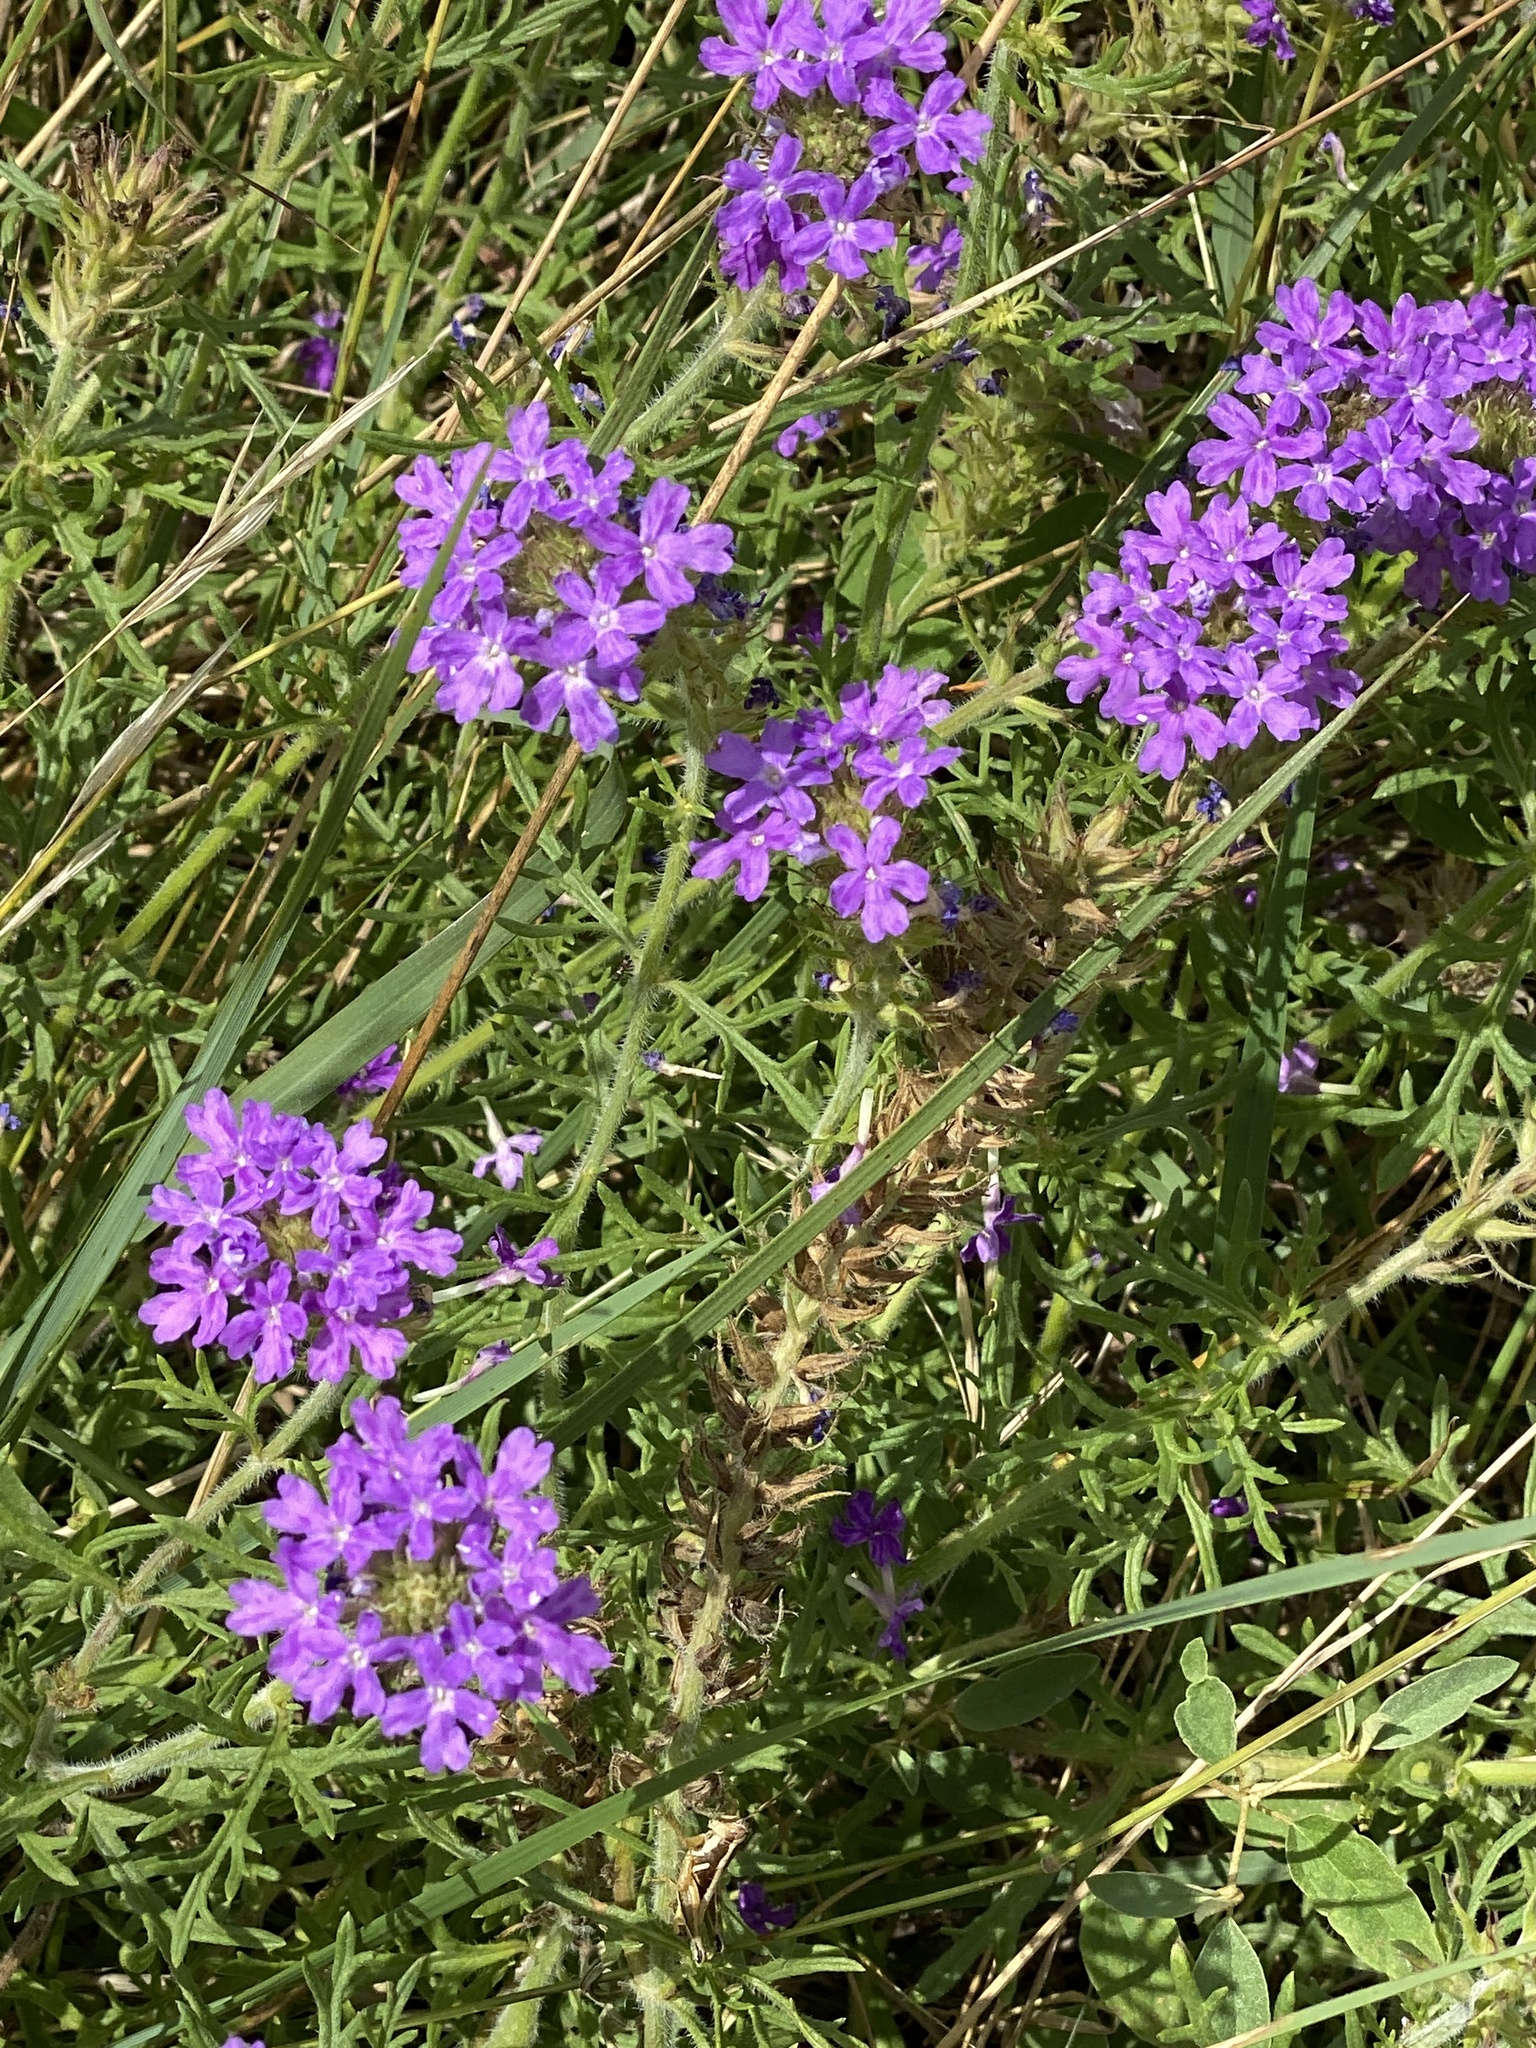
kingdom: Plantae
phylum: Tracheophyta
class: Magnoliopsida
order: Lamiales
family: Verbenaceae
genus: Verbena
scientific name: Verbena bipinnatifida
